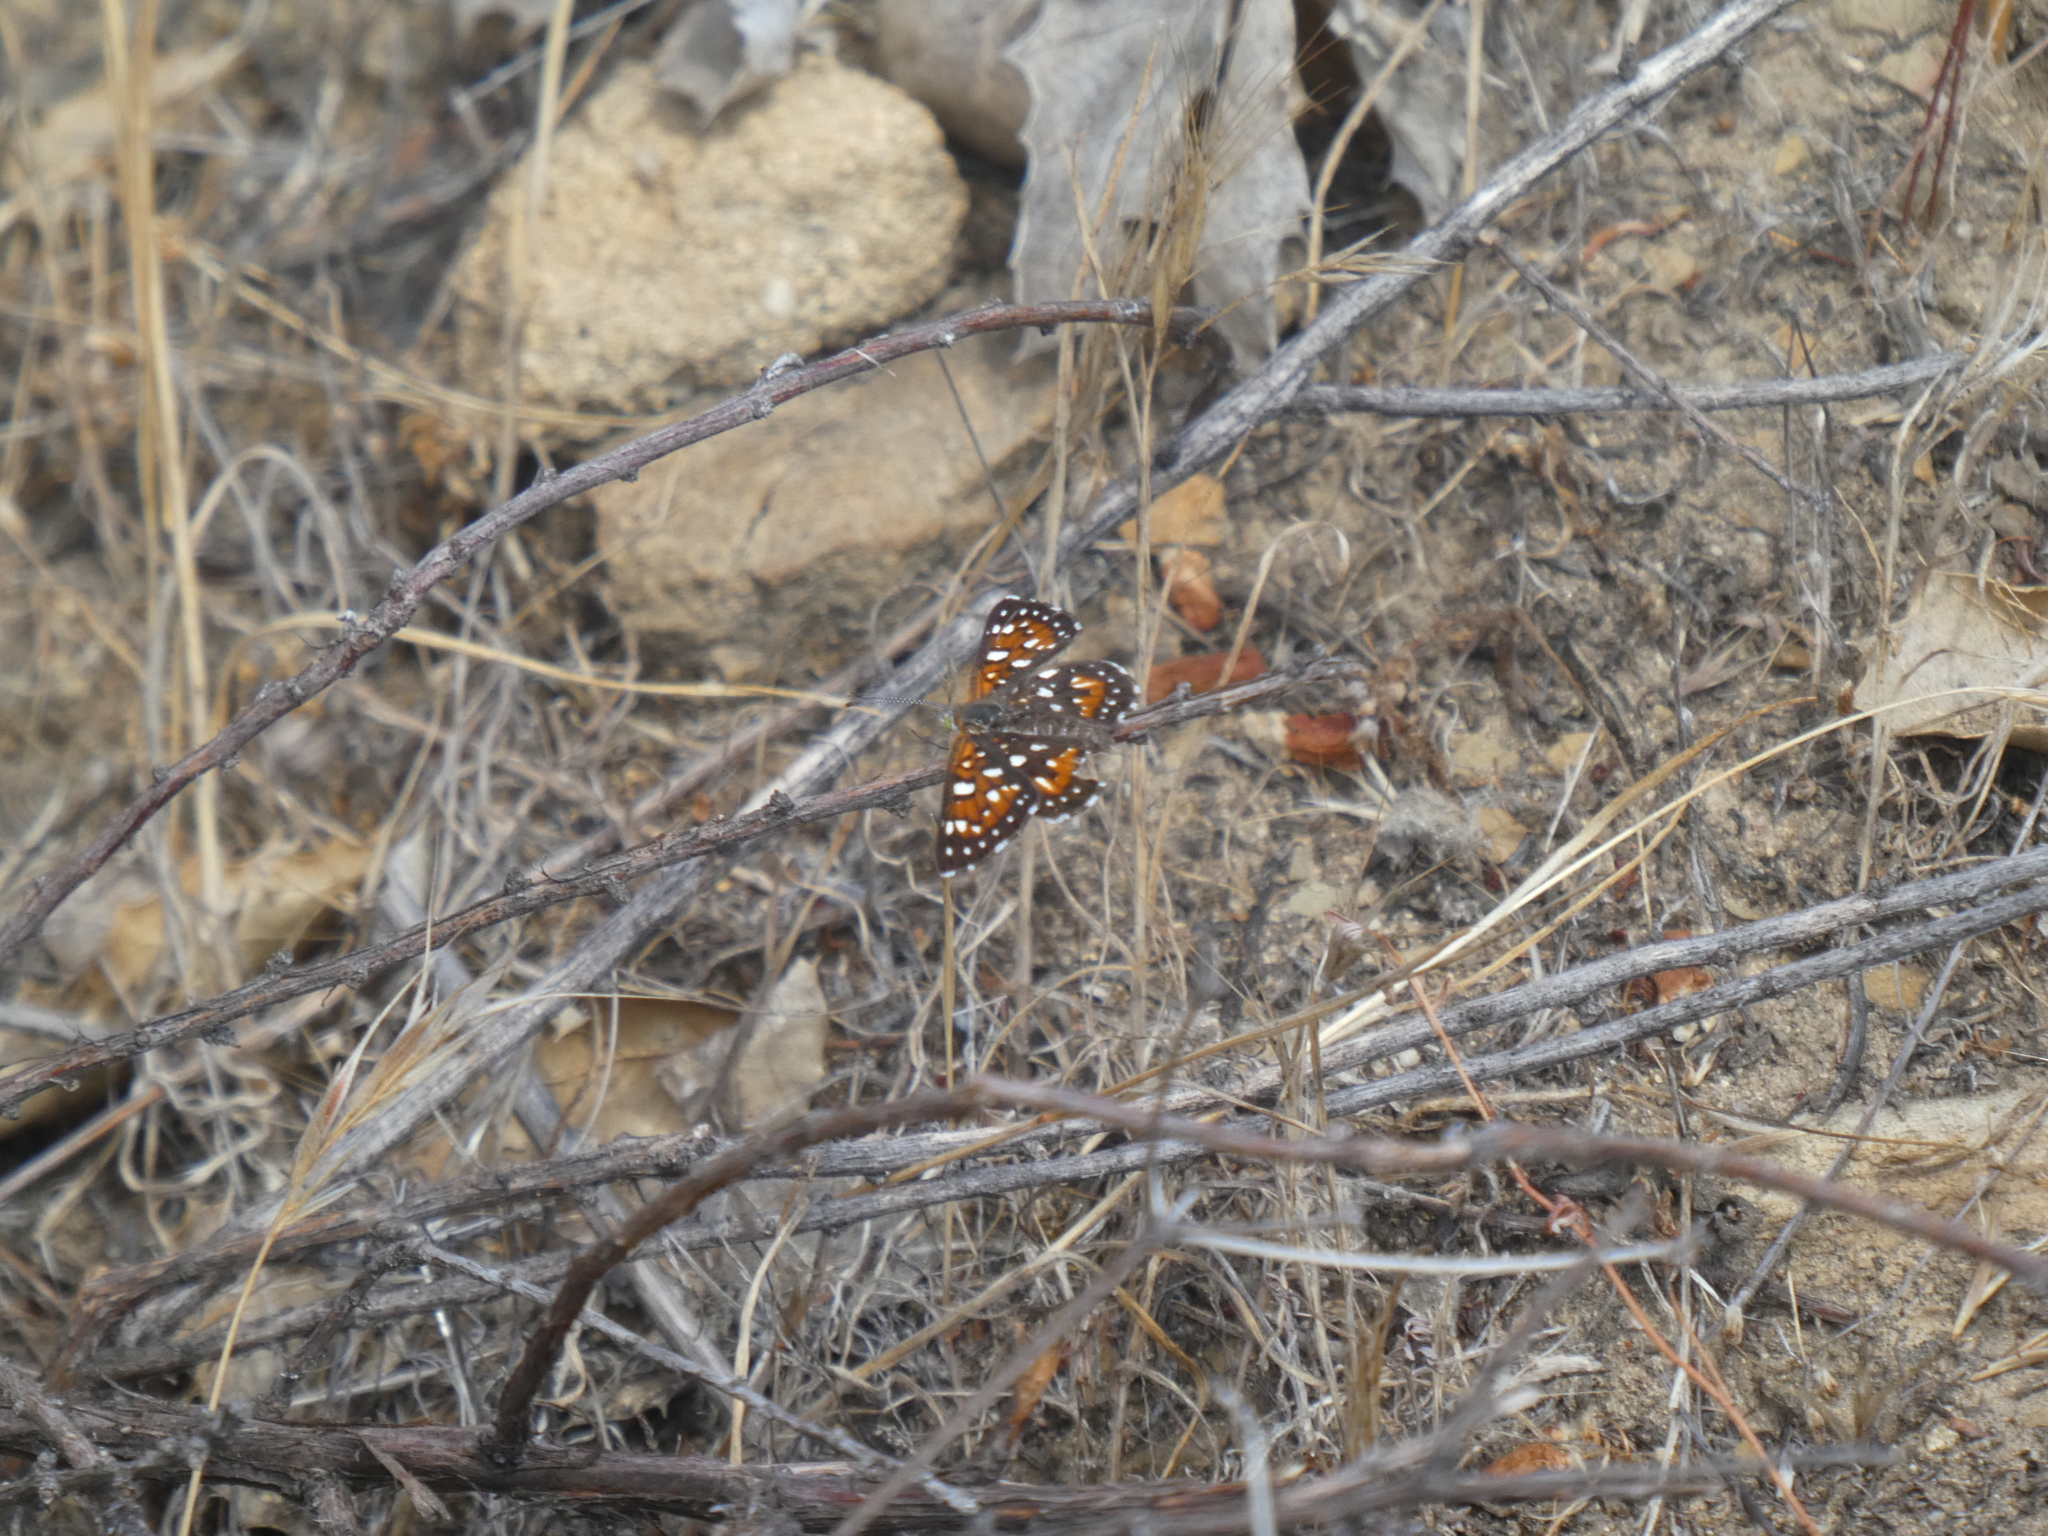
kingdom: Animalia
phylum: Arthropoda
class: Insecta
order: Lepidoptera
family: Riodinidae
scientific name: Riodinidae
